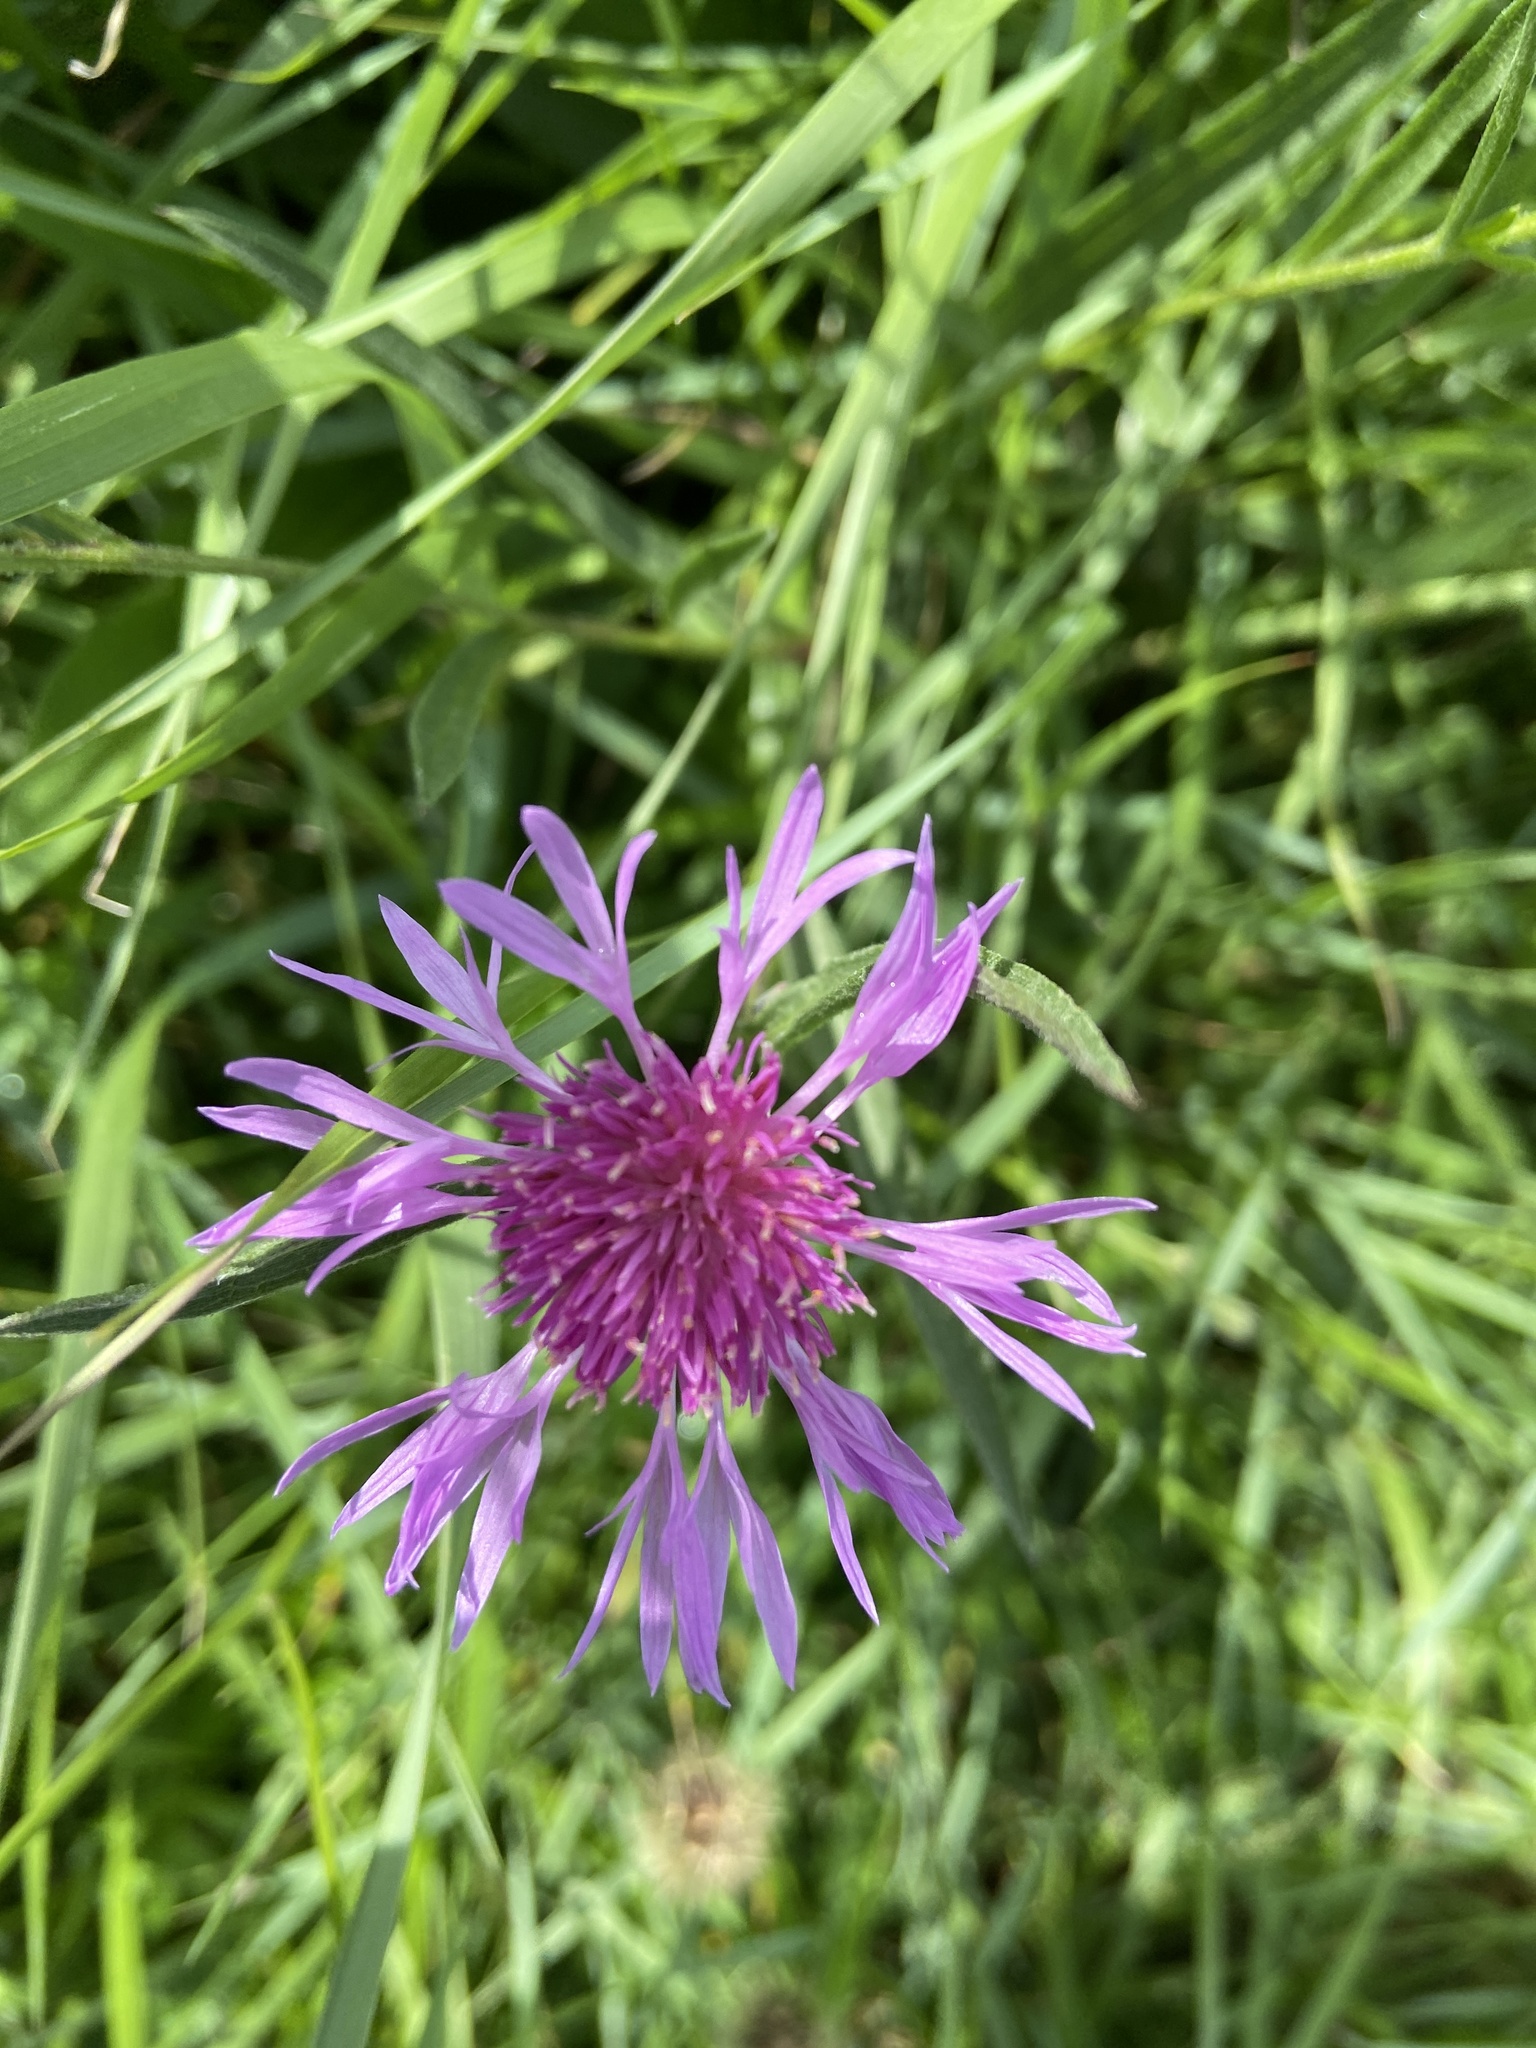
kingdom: Plantae
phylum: Tracheophyta
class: Magnoliopsida
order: Asterales
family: Asteraceae
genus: Centaurea
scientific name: Centaurea jacea
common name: Brown knapweed
